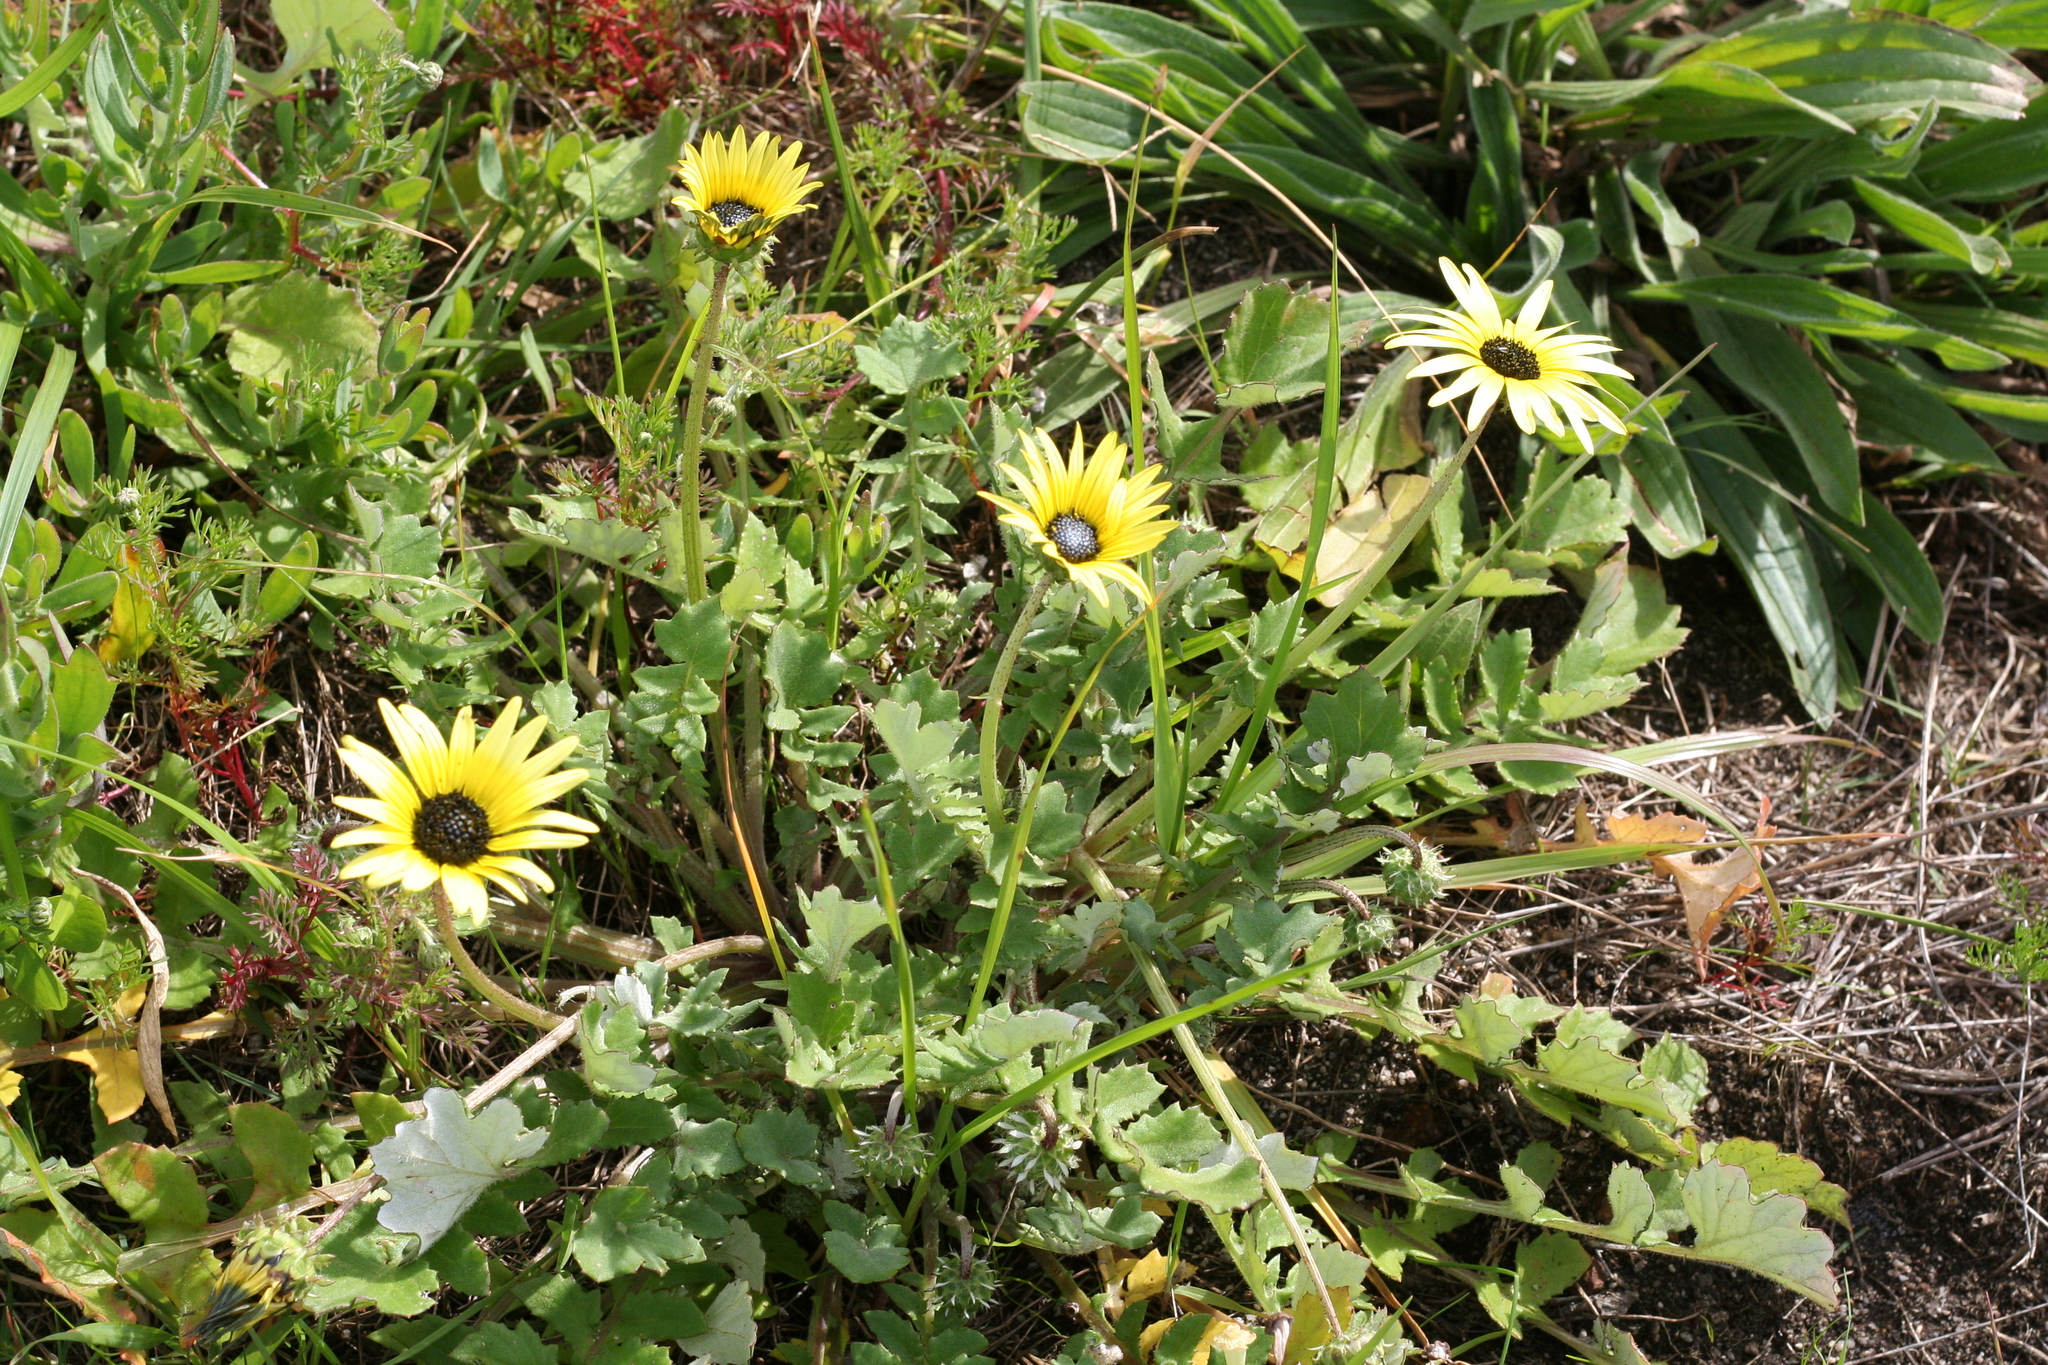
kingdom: Plantae
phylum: Tracheophyta
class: Magnoliopsida
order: Asterales
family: Asteraceae
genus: Arctotheca
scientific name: Arctotheca calendula
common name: Capeweed
